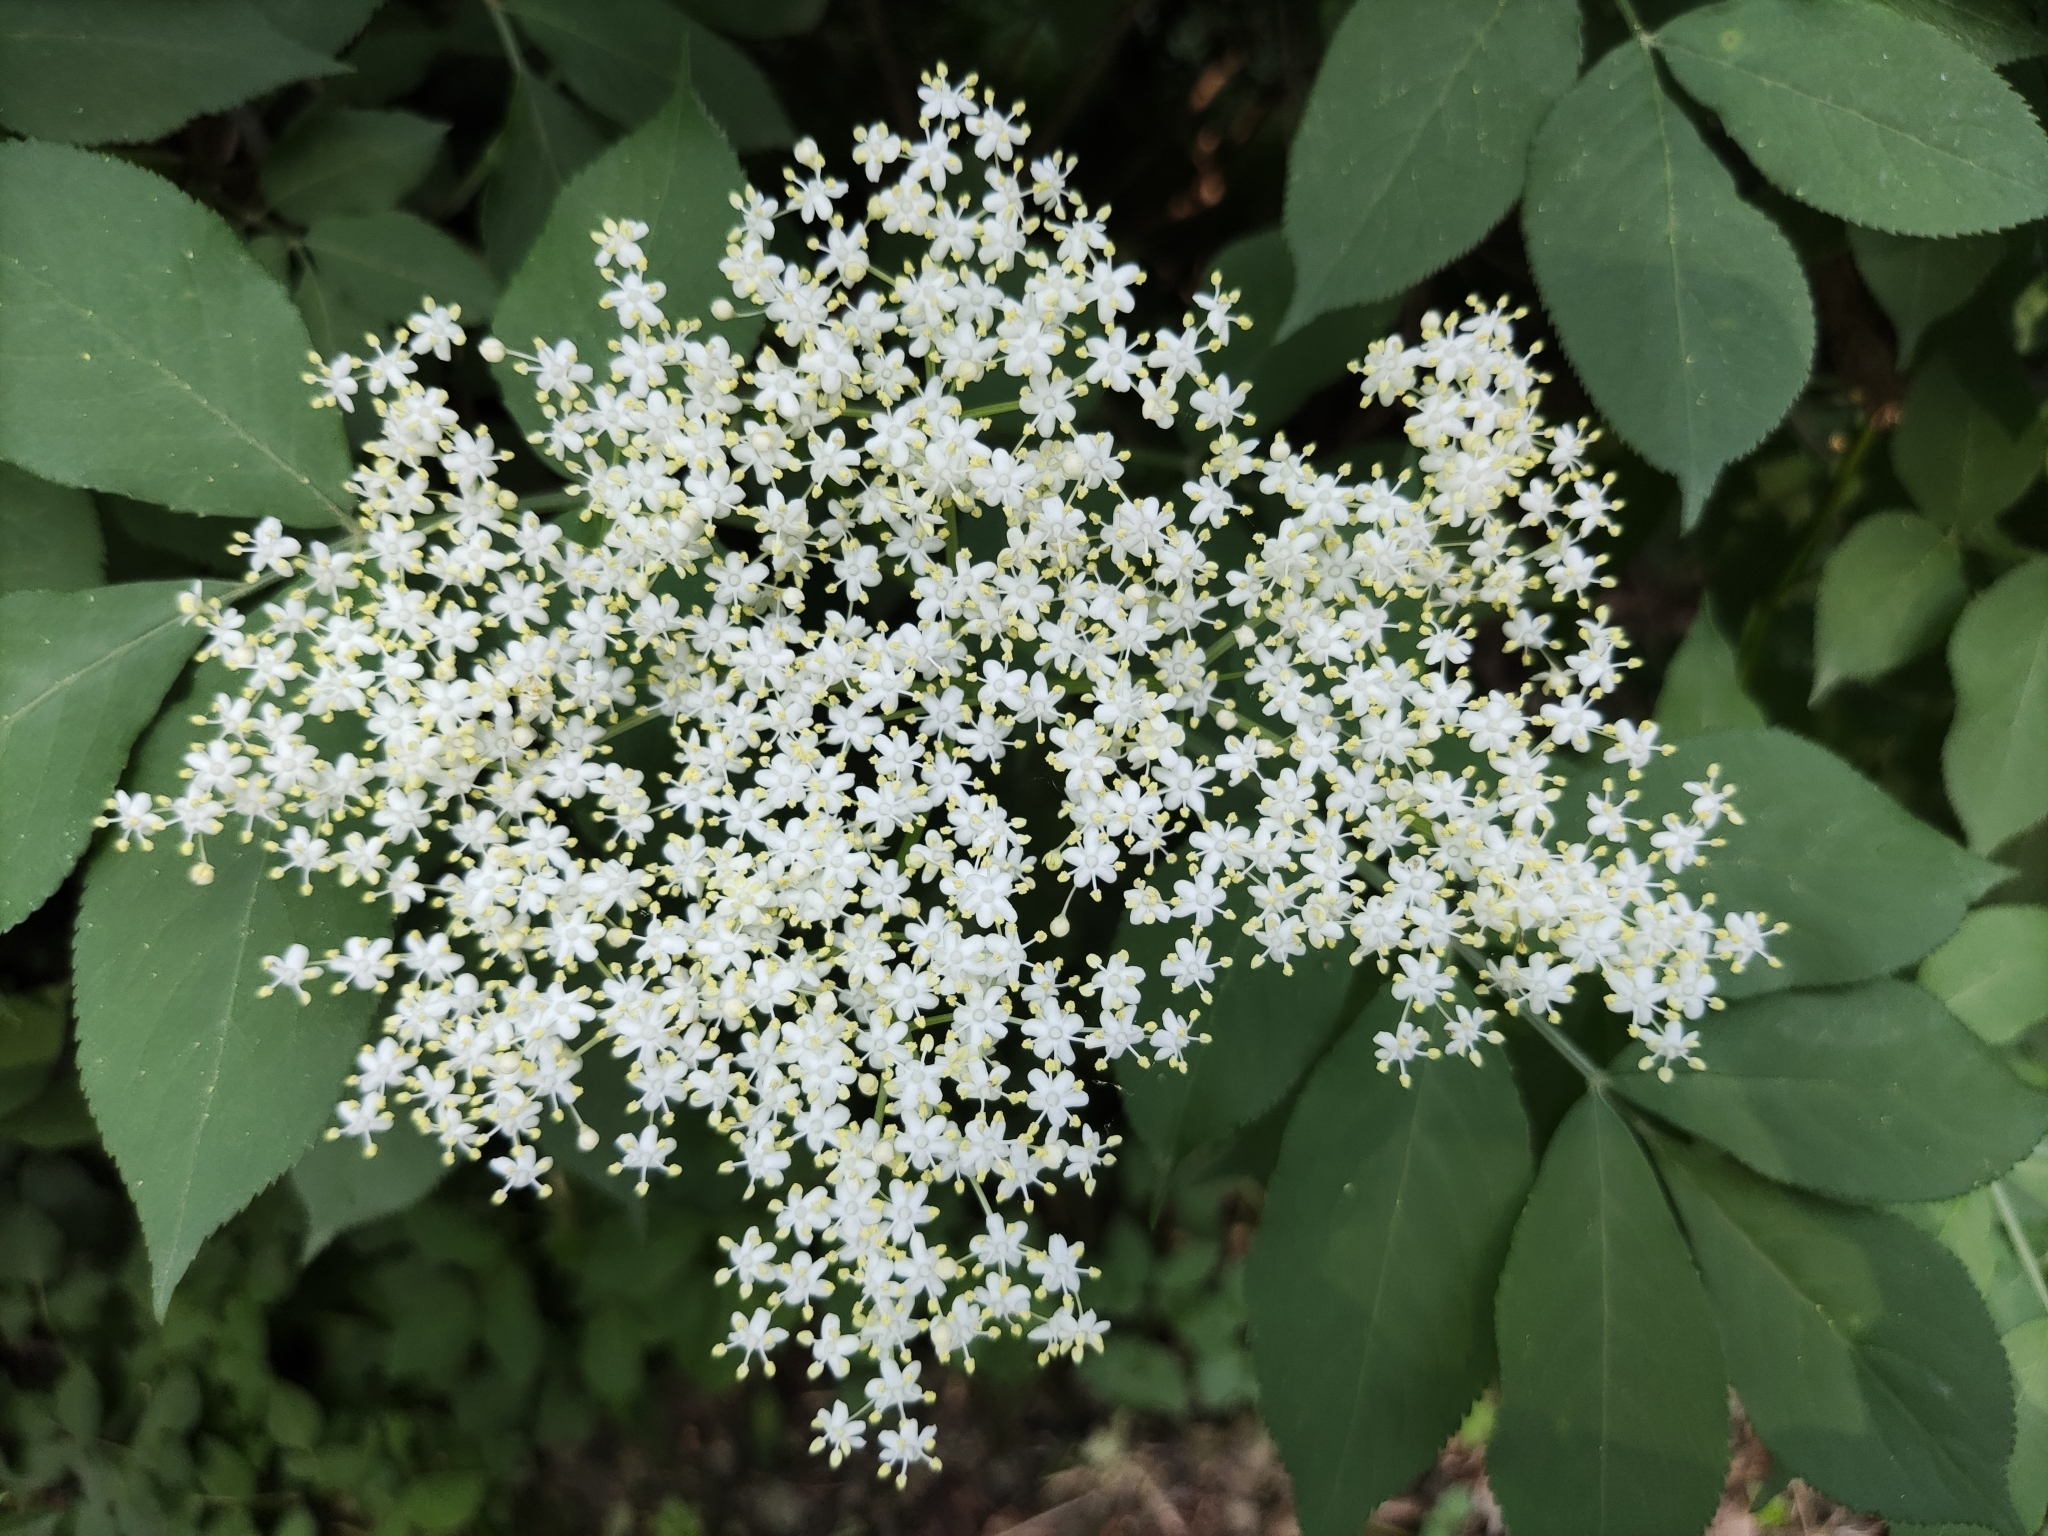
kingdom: Plantae
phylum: Tracheophyta
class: Magnoliopsida
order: Dipsacales
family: Viburnaceae
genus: Sambucus
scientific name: Sambucus nigra
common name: Elder
